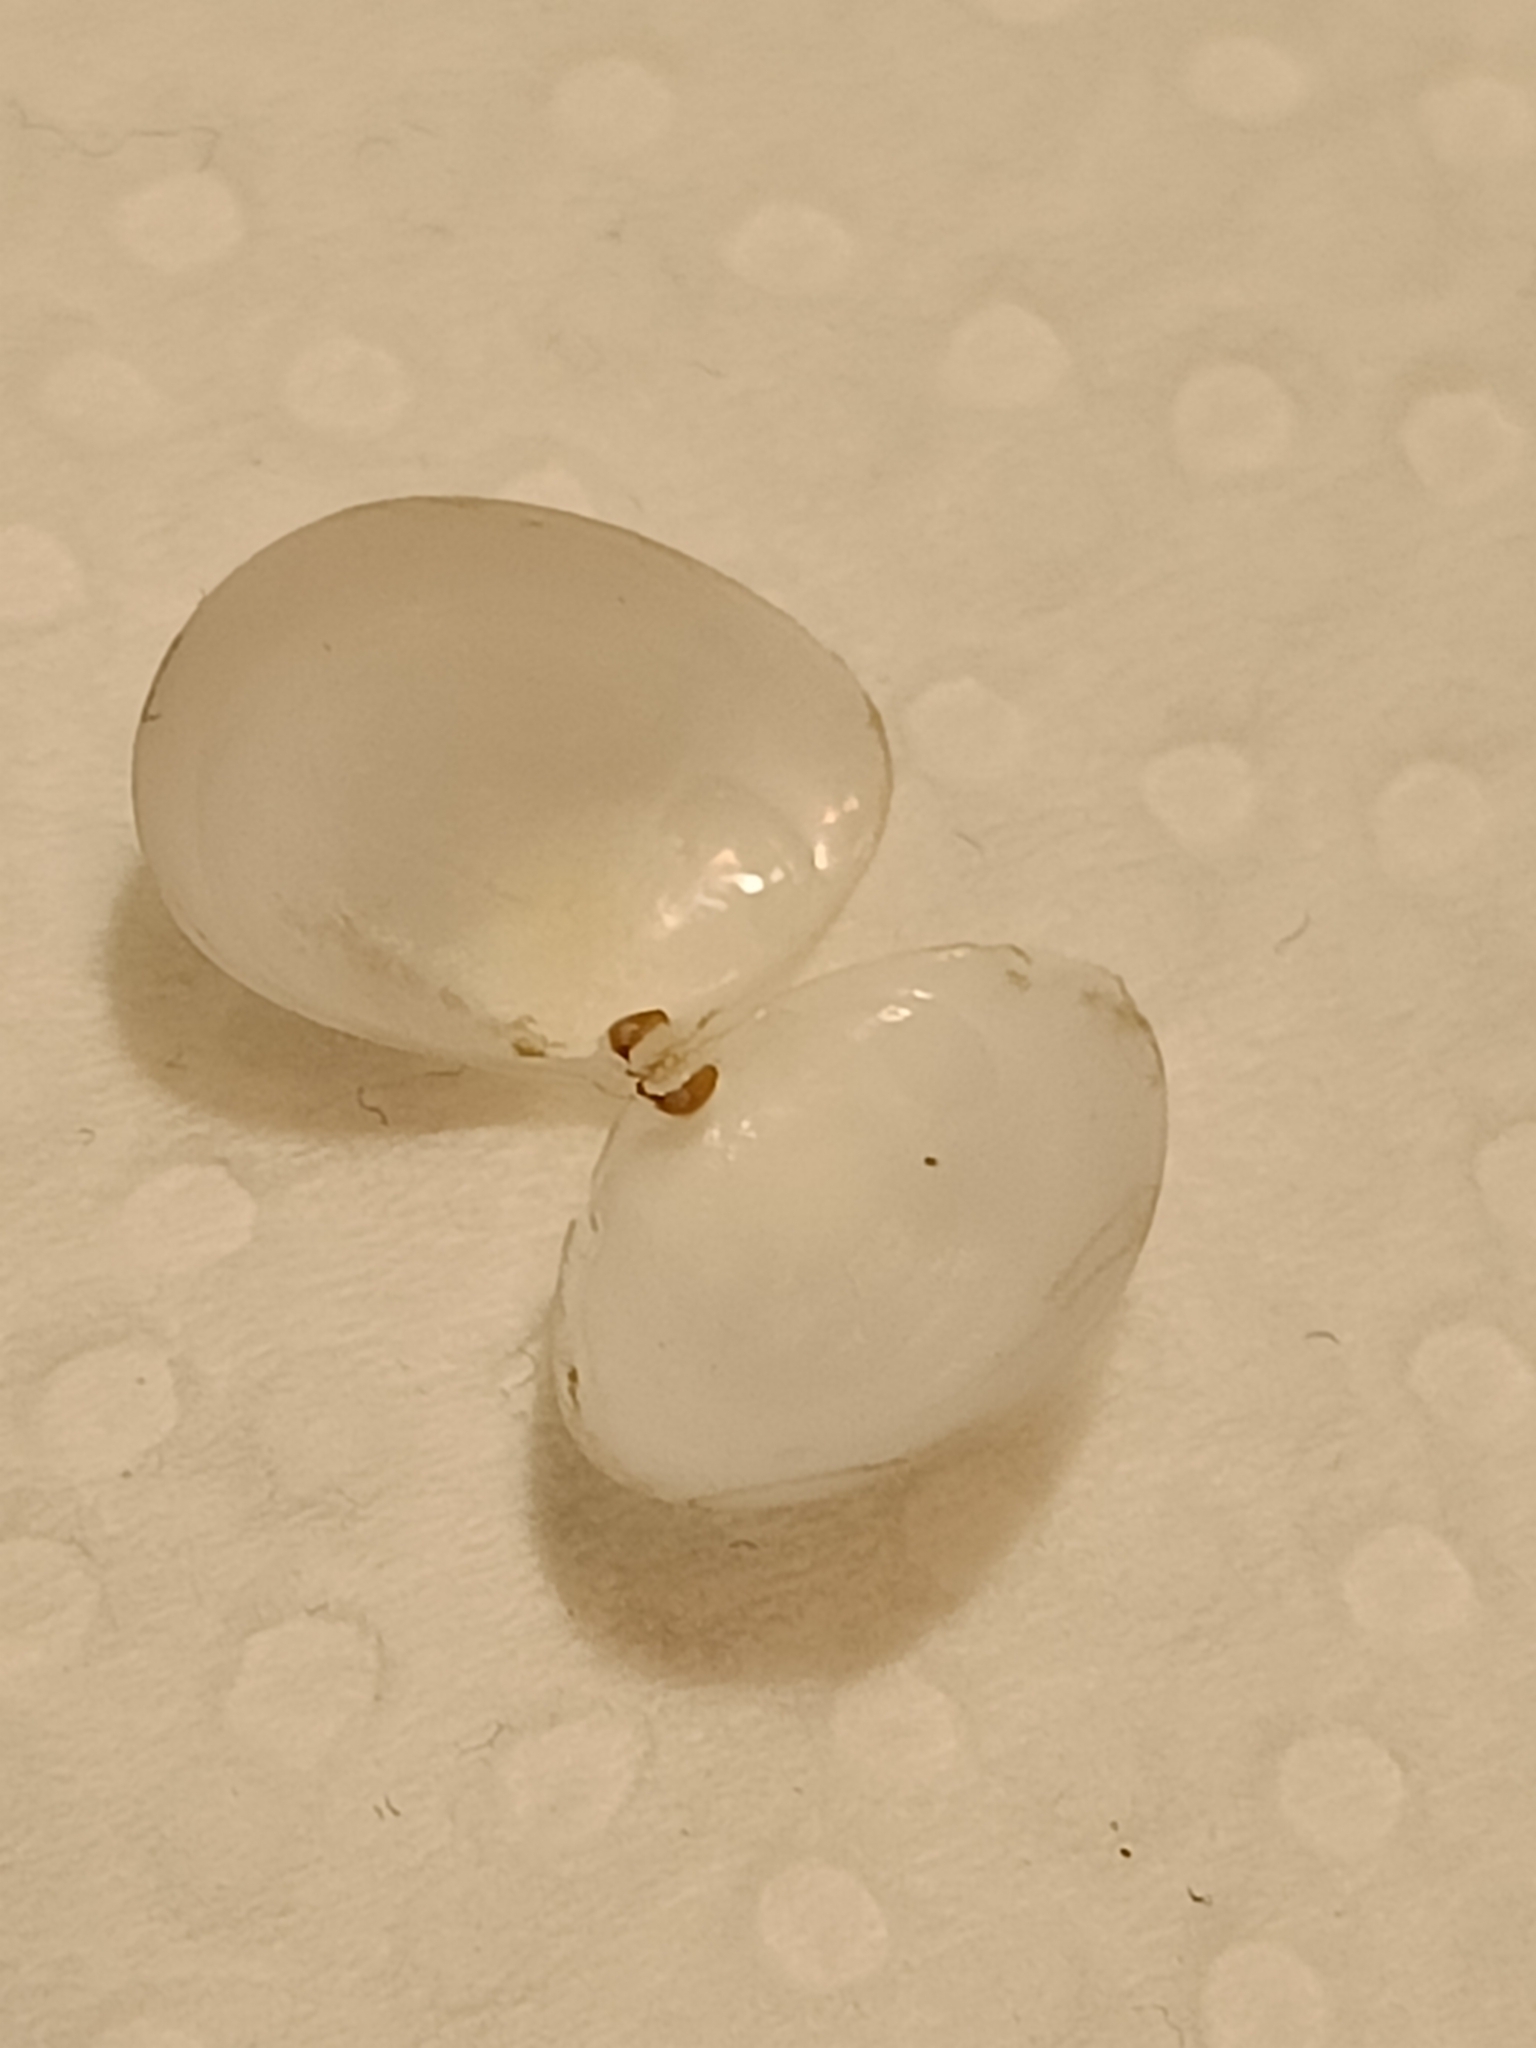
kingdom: Animalia
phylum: Mollusca
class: Bivalvia
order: Cardiida
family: Semelidae
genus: Abra
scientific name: Abra alba
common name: White abra
